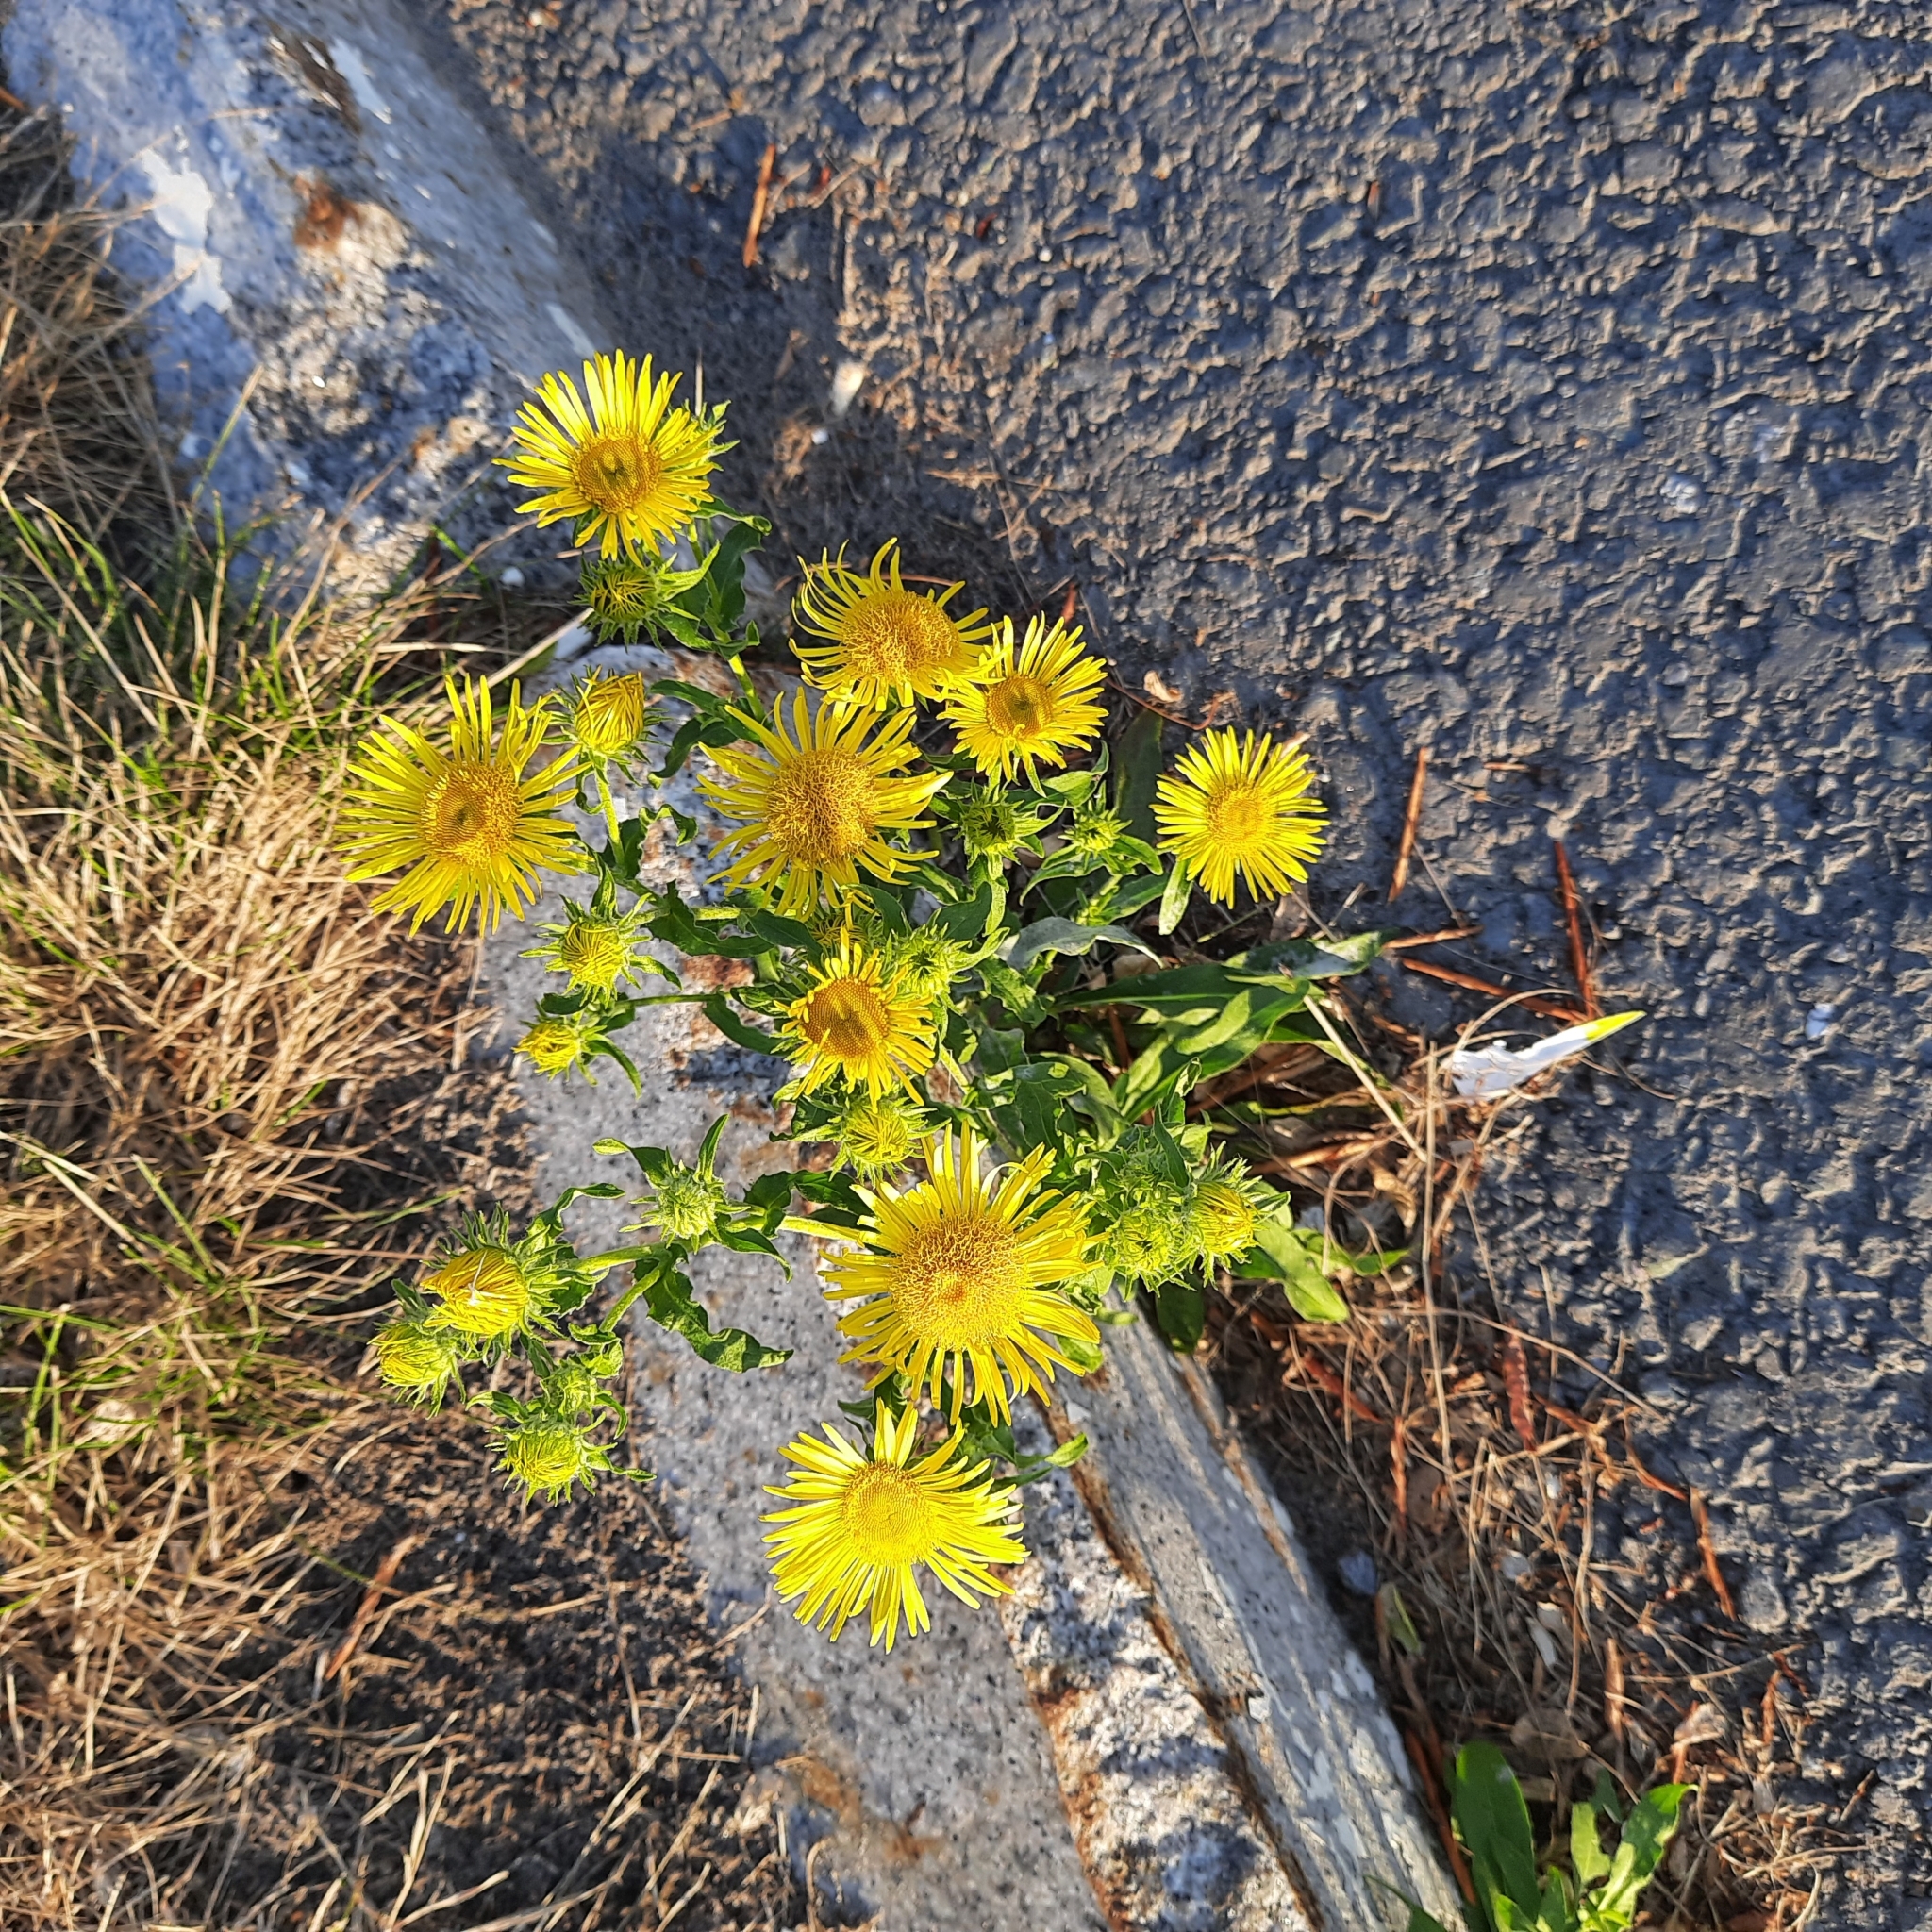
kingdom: Plantae
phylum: Tracheophyta
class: Magnoliopsida
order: Asterales
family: Asteraceae
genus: Pentanema
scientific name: Pentanema britannicum
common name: British elecampane
